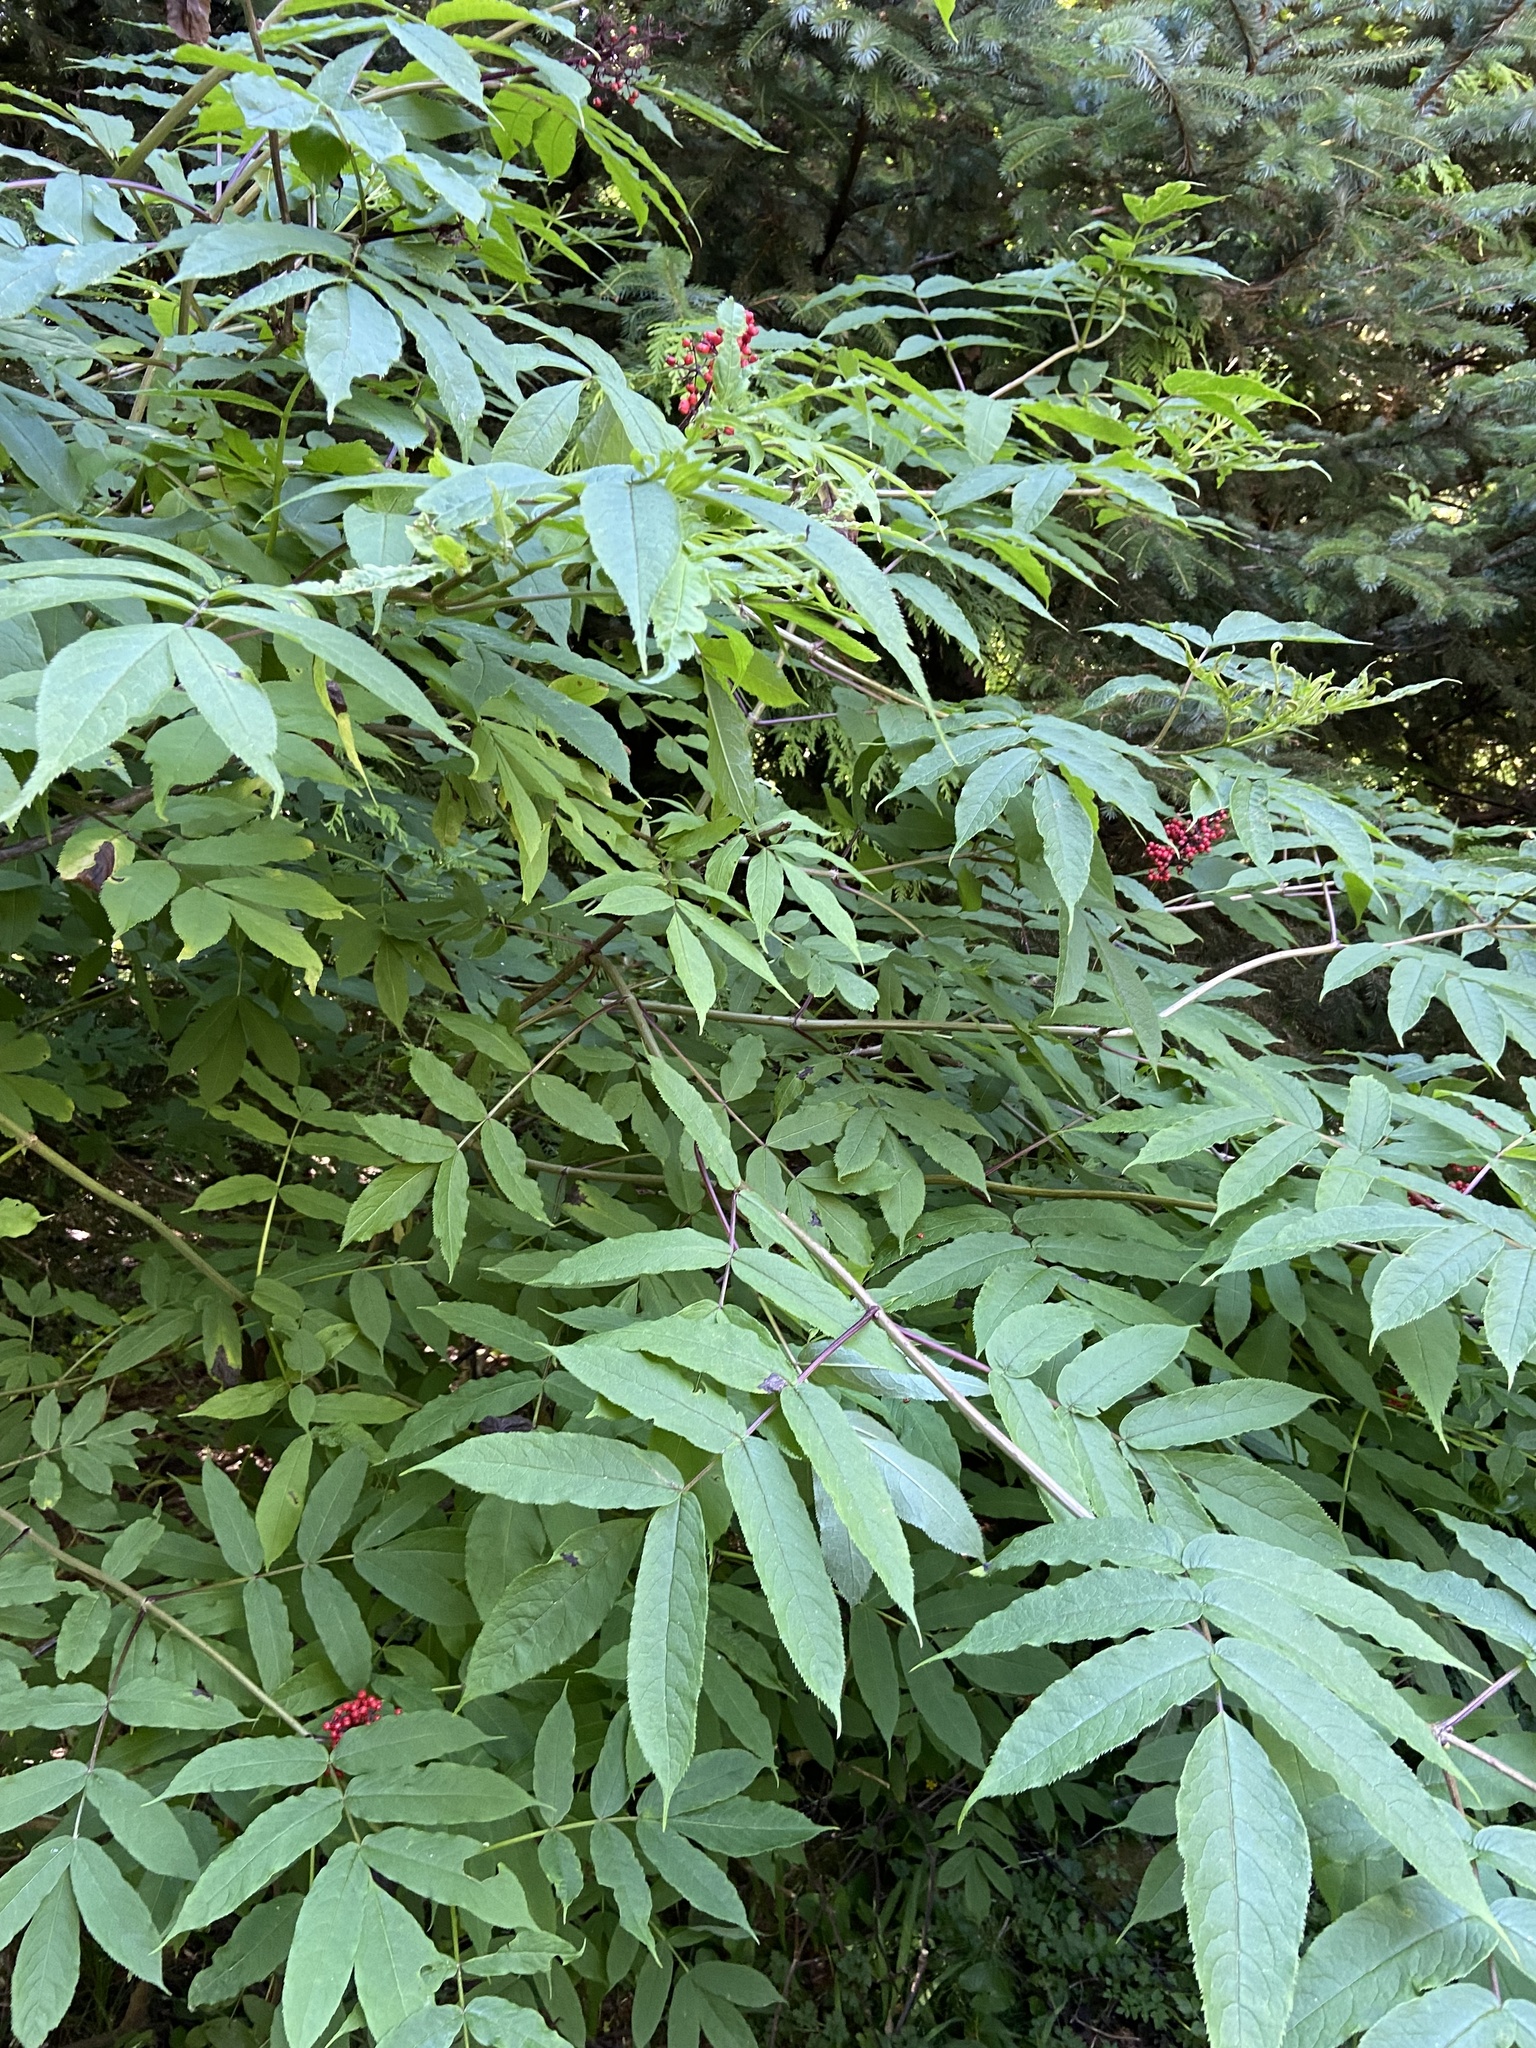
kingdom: Plantae
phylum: Tracheophyta
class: Magnoliopsida
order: Dipsacales
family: Viburnaceae
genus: Sambucus
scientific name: Sambucus racemosa
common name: Red-berried elder
